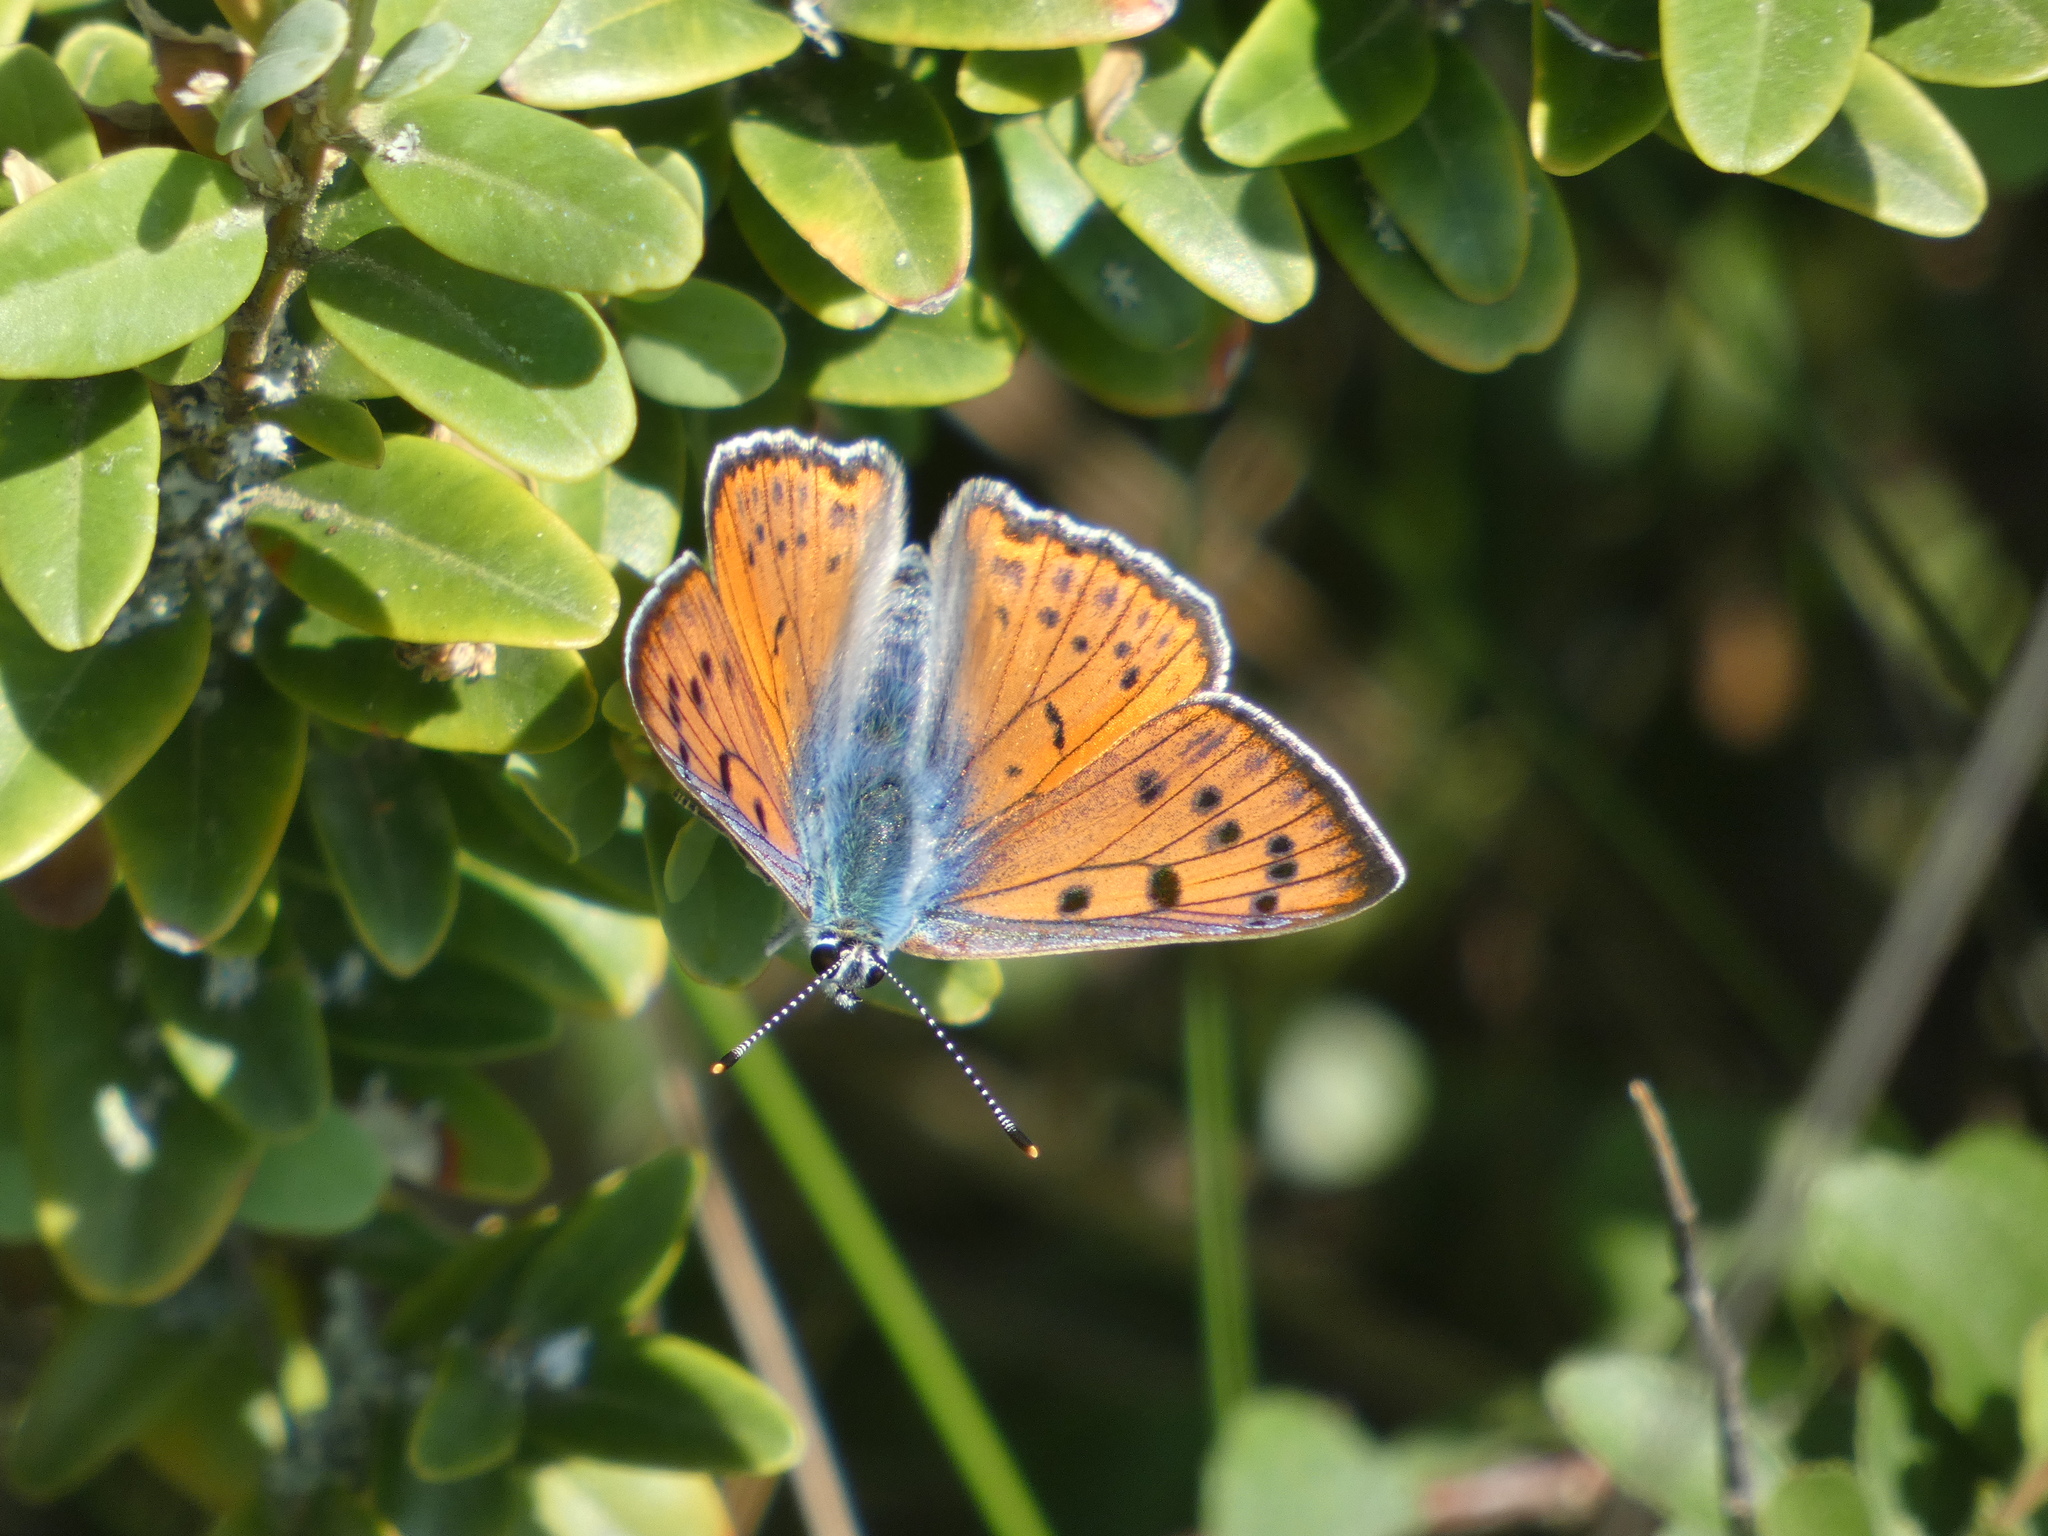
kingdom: Animalia
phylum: Arthropoda
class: Insecta
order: Lepidoptera
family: Lycaenidae
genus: Lycaena
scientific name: Lycaena alciphron
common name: Purple-shot copper
